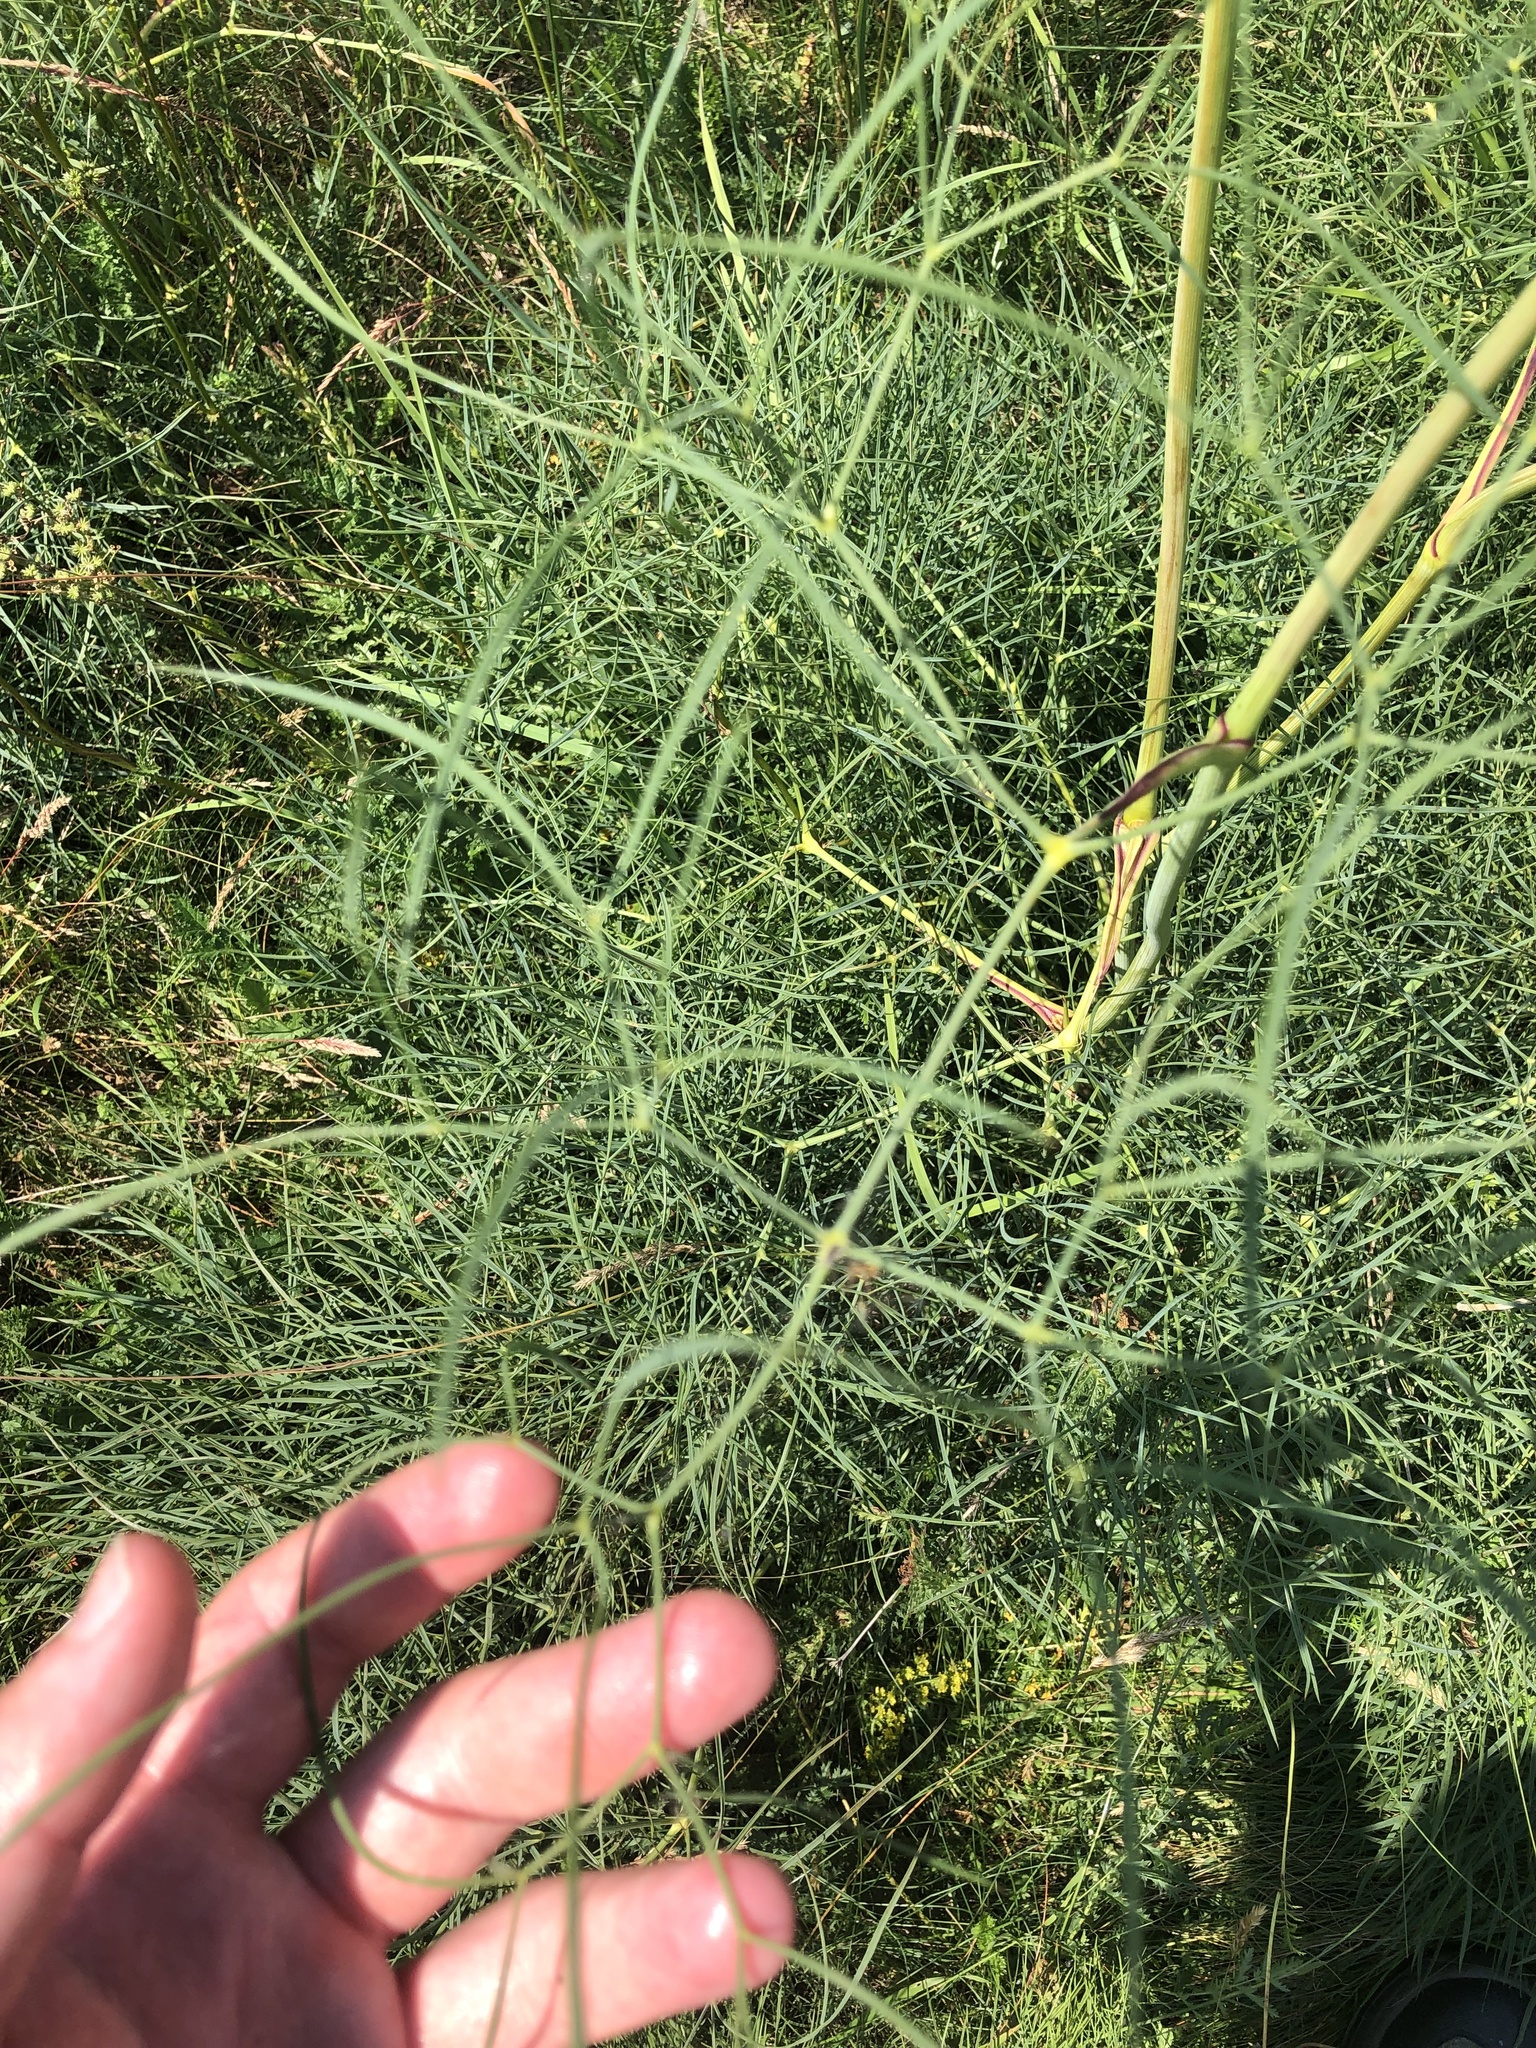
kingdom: Plantae
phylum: Tracheophyta
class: Magnoliopsida
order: Apiales
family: Apiaceae
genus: Peucedanum
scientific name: Peucedanum officinale
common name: Sulphurweed
